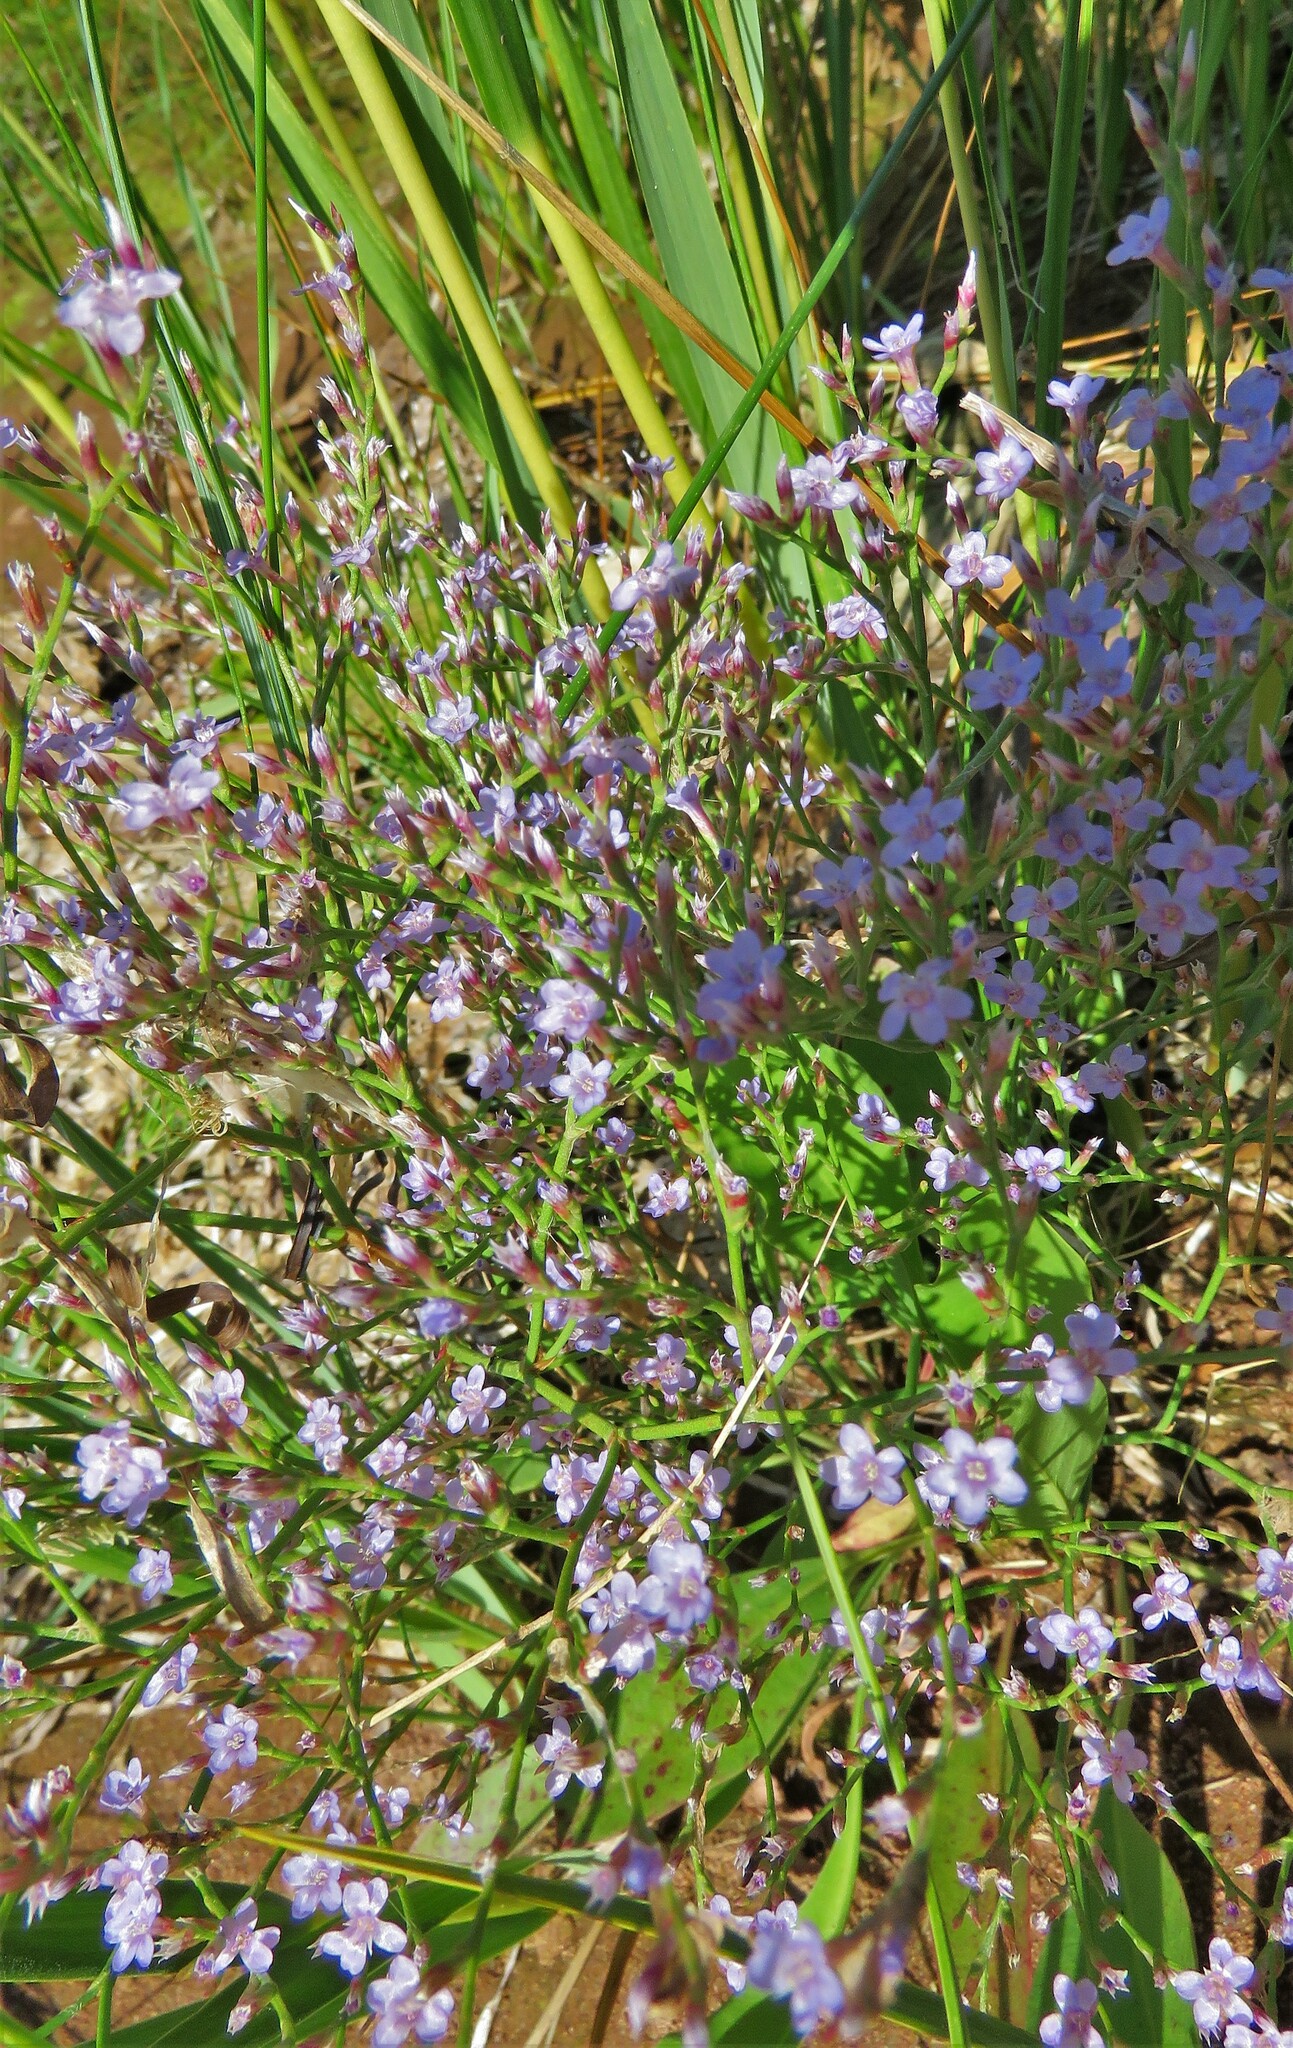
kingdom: Plantae
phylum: Tracheophyta
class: Magnoliopsida
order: Caryophyllales
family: Plumbaginaceae
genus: Limonium
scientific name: Limonium carolinianum
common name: Carolina sea lavender
